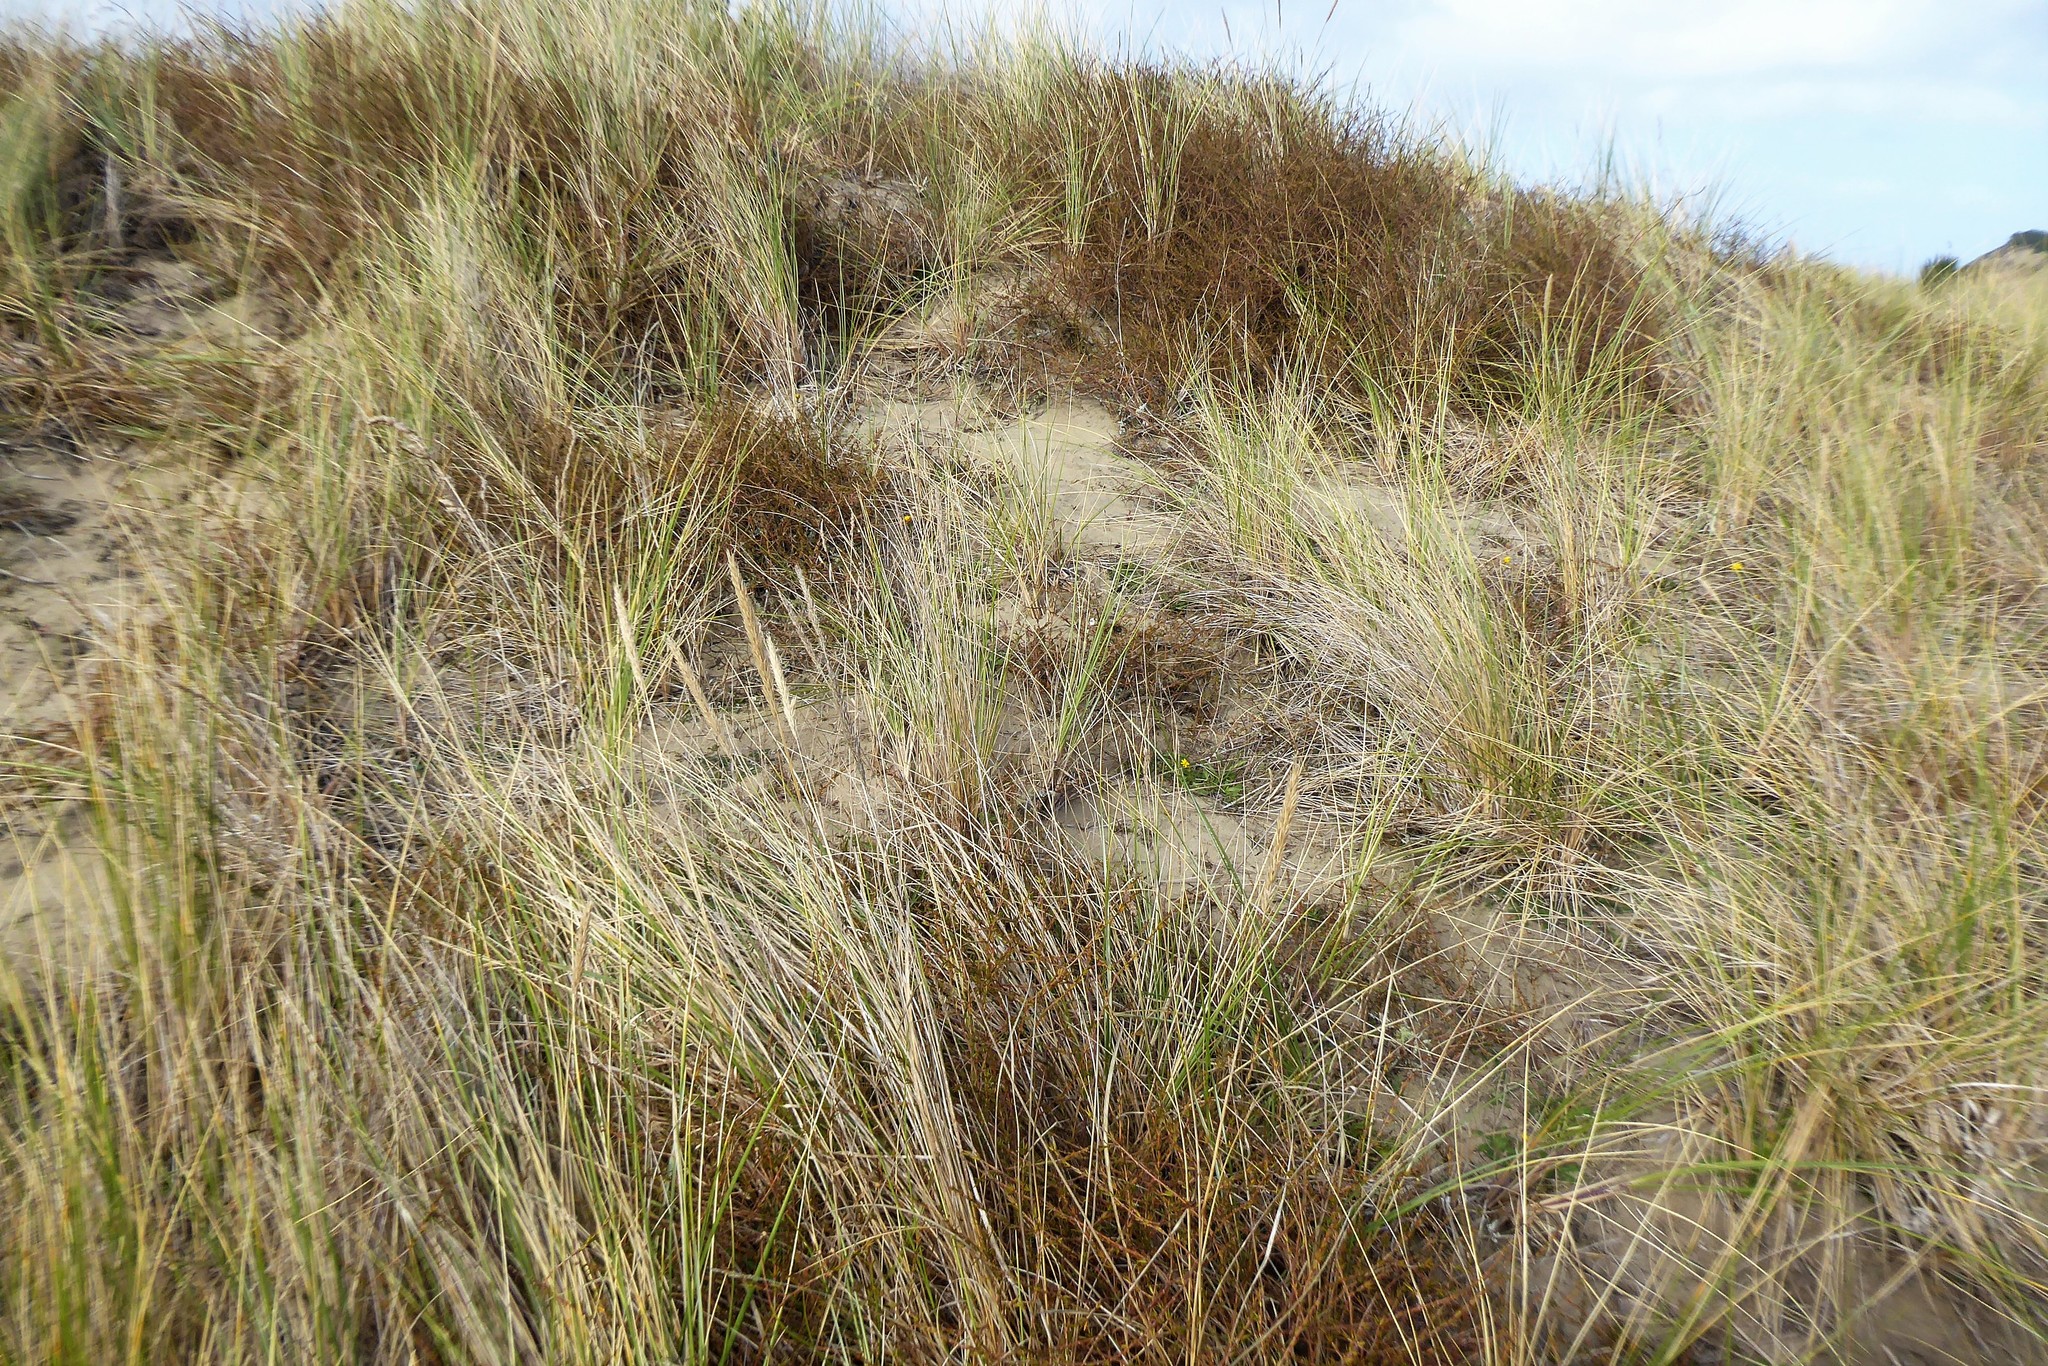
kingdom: Plantae
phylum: Tracheophyta
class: Magnoliopsida
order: Gentianales
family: Rubiaceae
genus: Coprosma
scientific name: Coprosma acerosa
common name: Sand coprosma
